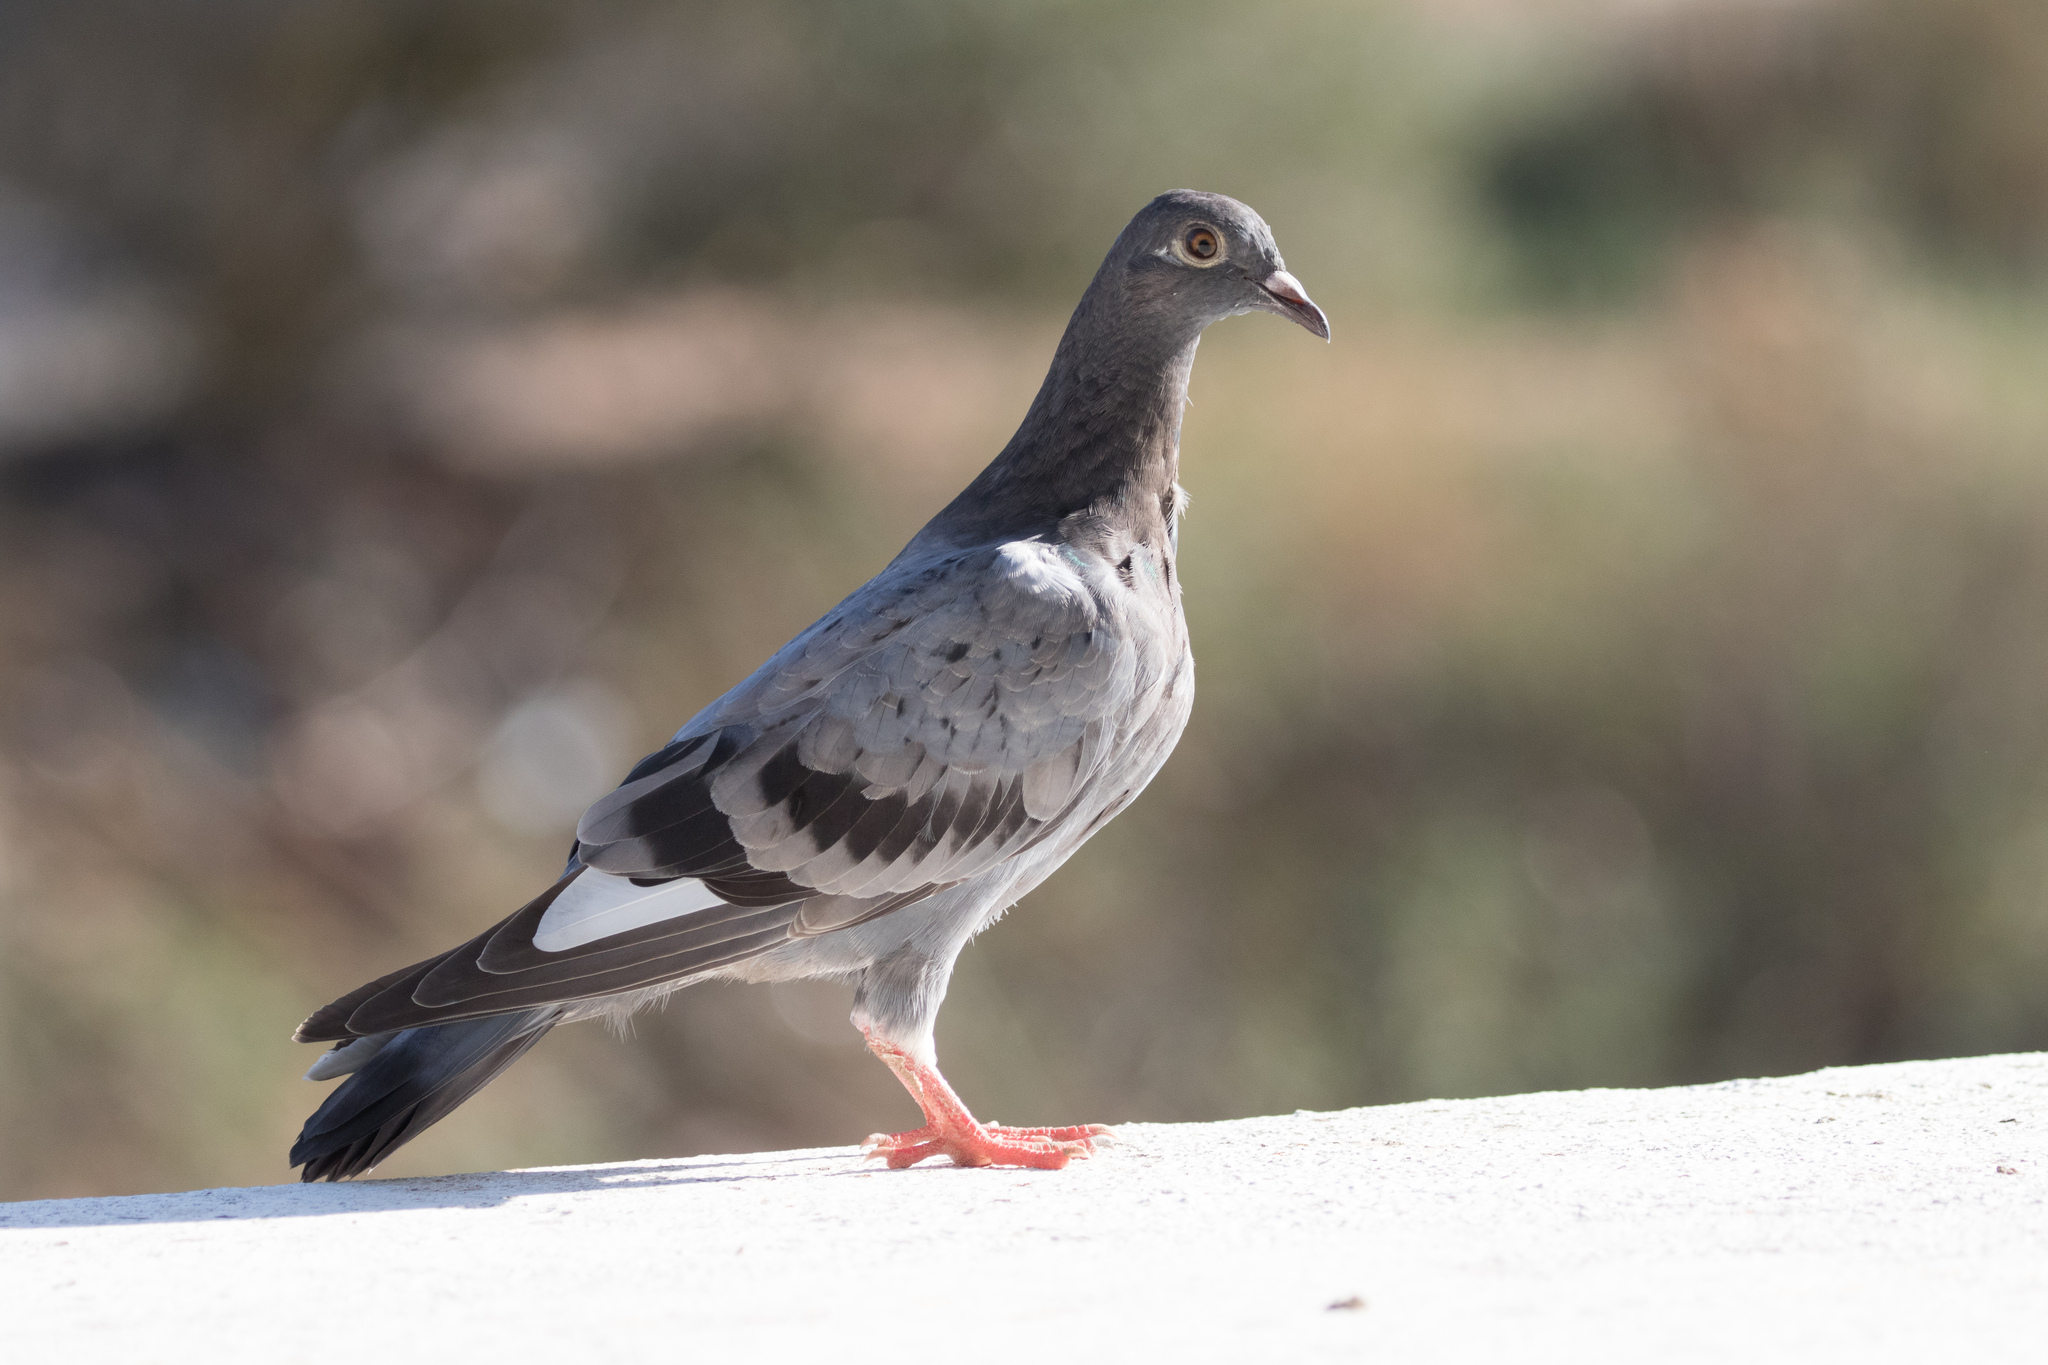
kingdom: Animalia
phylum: Chordata
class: Aves
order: Columbiformes
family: Columbidae
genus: Columba
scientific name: Columba livia
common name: Rock pigeon
